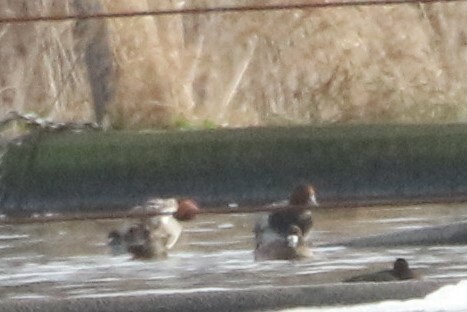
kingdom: Animalia
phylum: Chordata
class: Aves
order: Anseriformes
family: Anatidae
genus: Aythya
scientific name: Aythya americana
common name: Redhead
